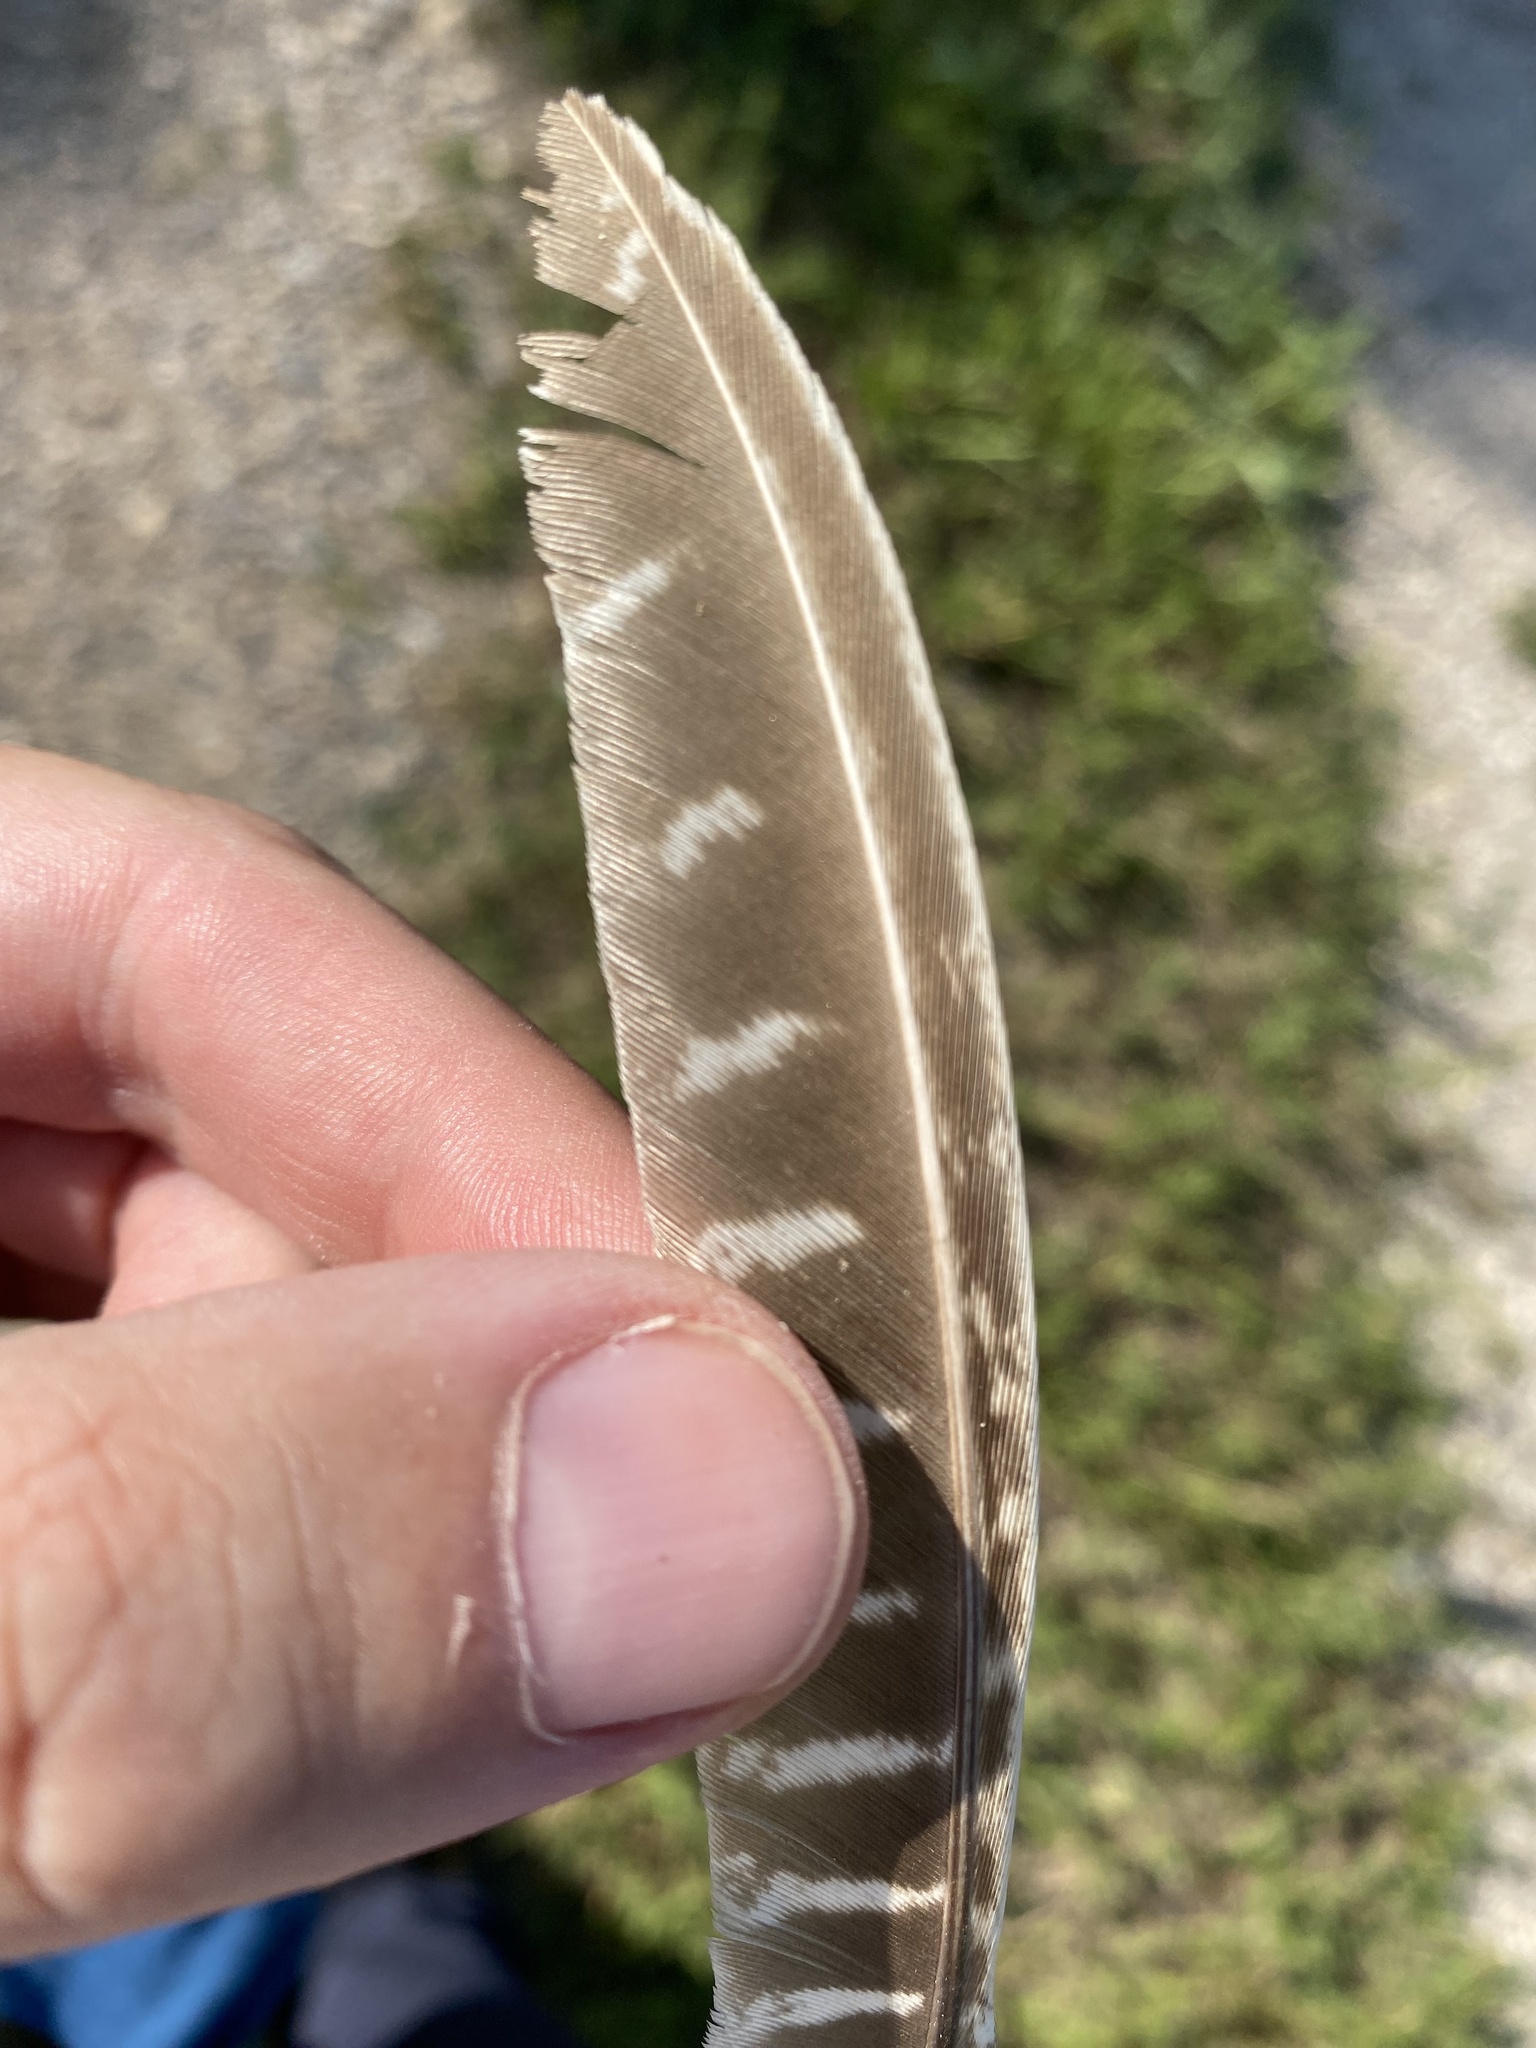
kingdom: Animalia
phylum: Chordata
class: Aves
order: Galliformes
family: Phasianidae
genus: Phasianus
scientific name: Phasianus colchicus
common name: Common pheasant
